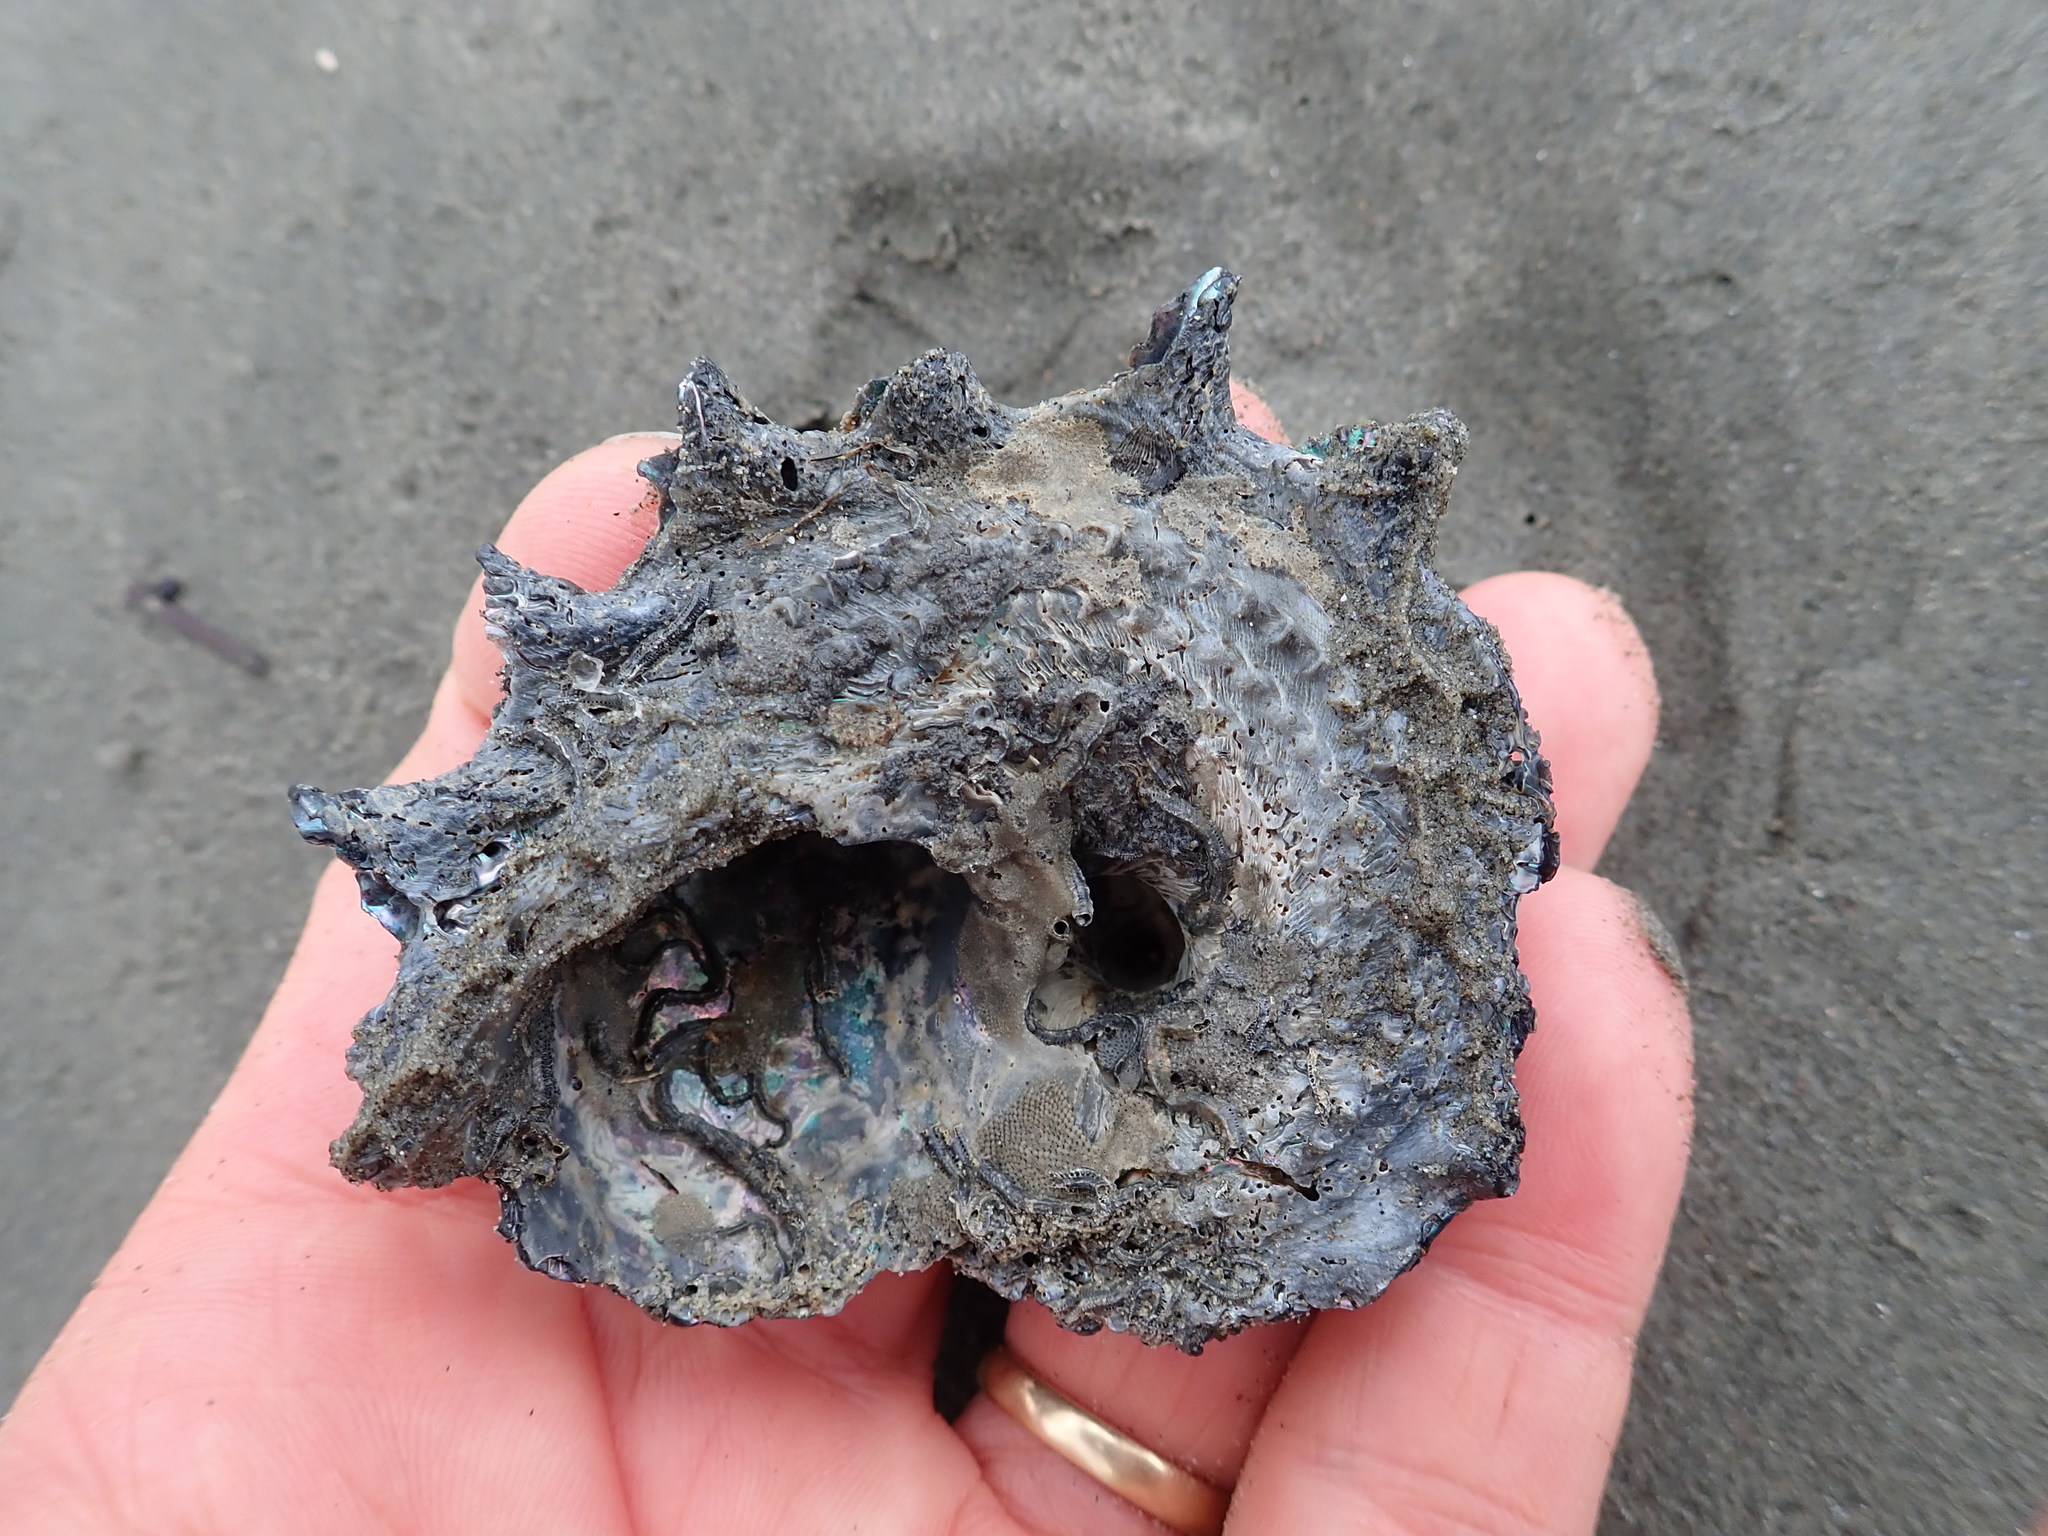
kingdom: Animalia
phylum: Mollusca
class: Gastropoda
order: Trochida
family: Turbinidae
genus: Astraea
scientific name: Astraea heliotropium
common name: Sun shell
